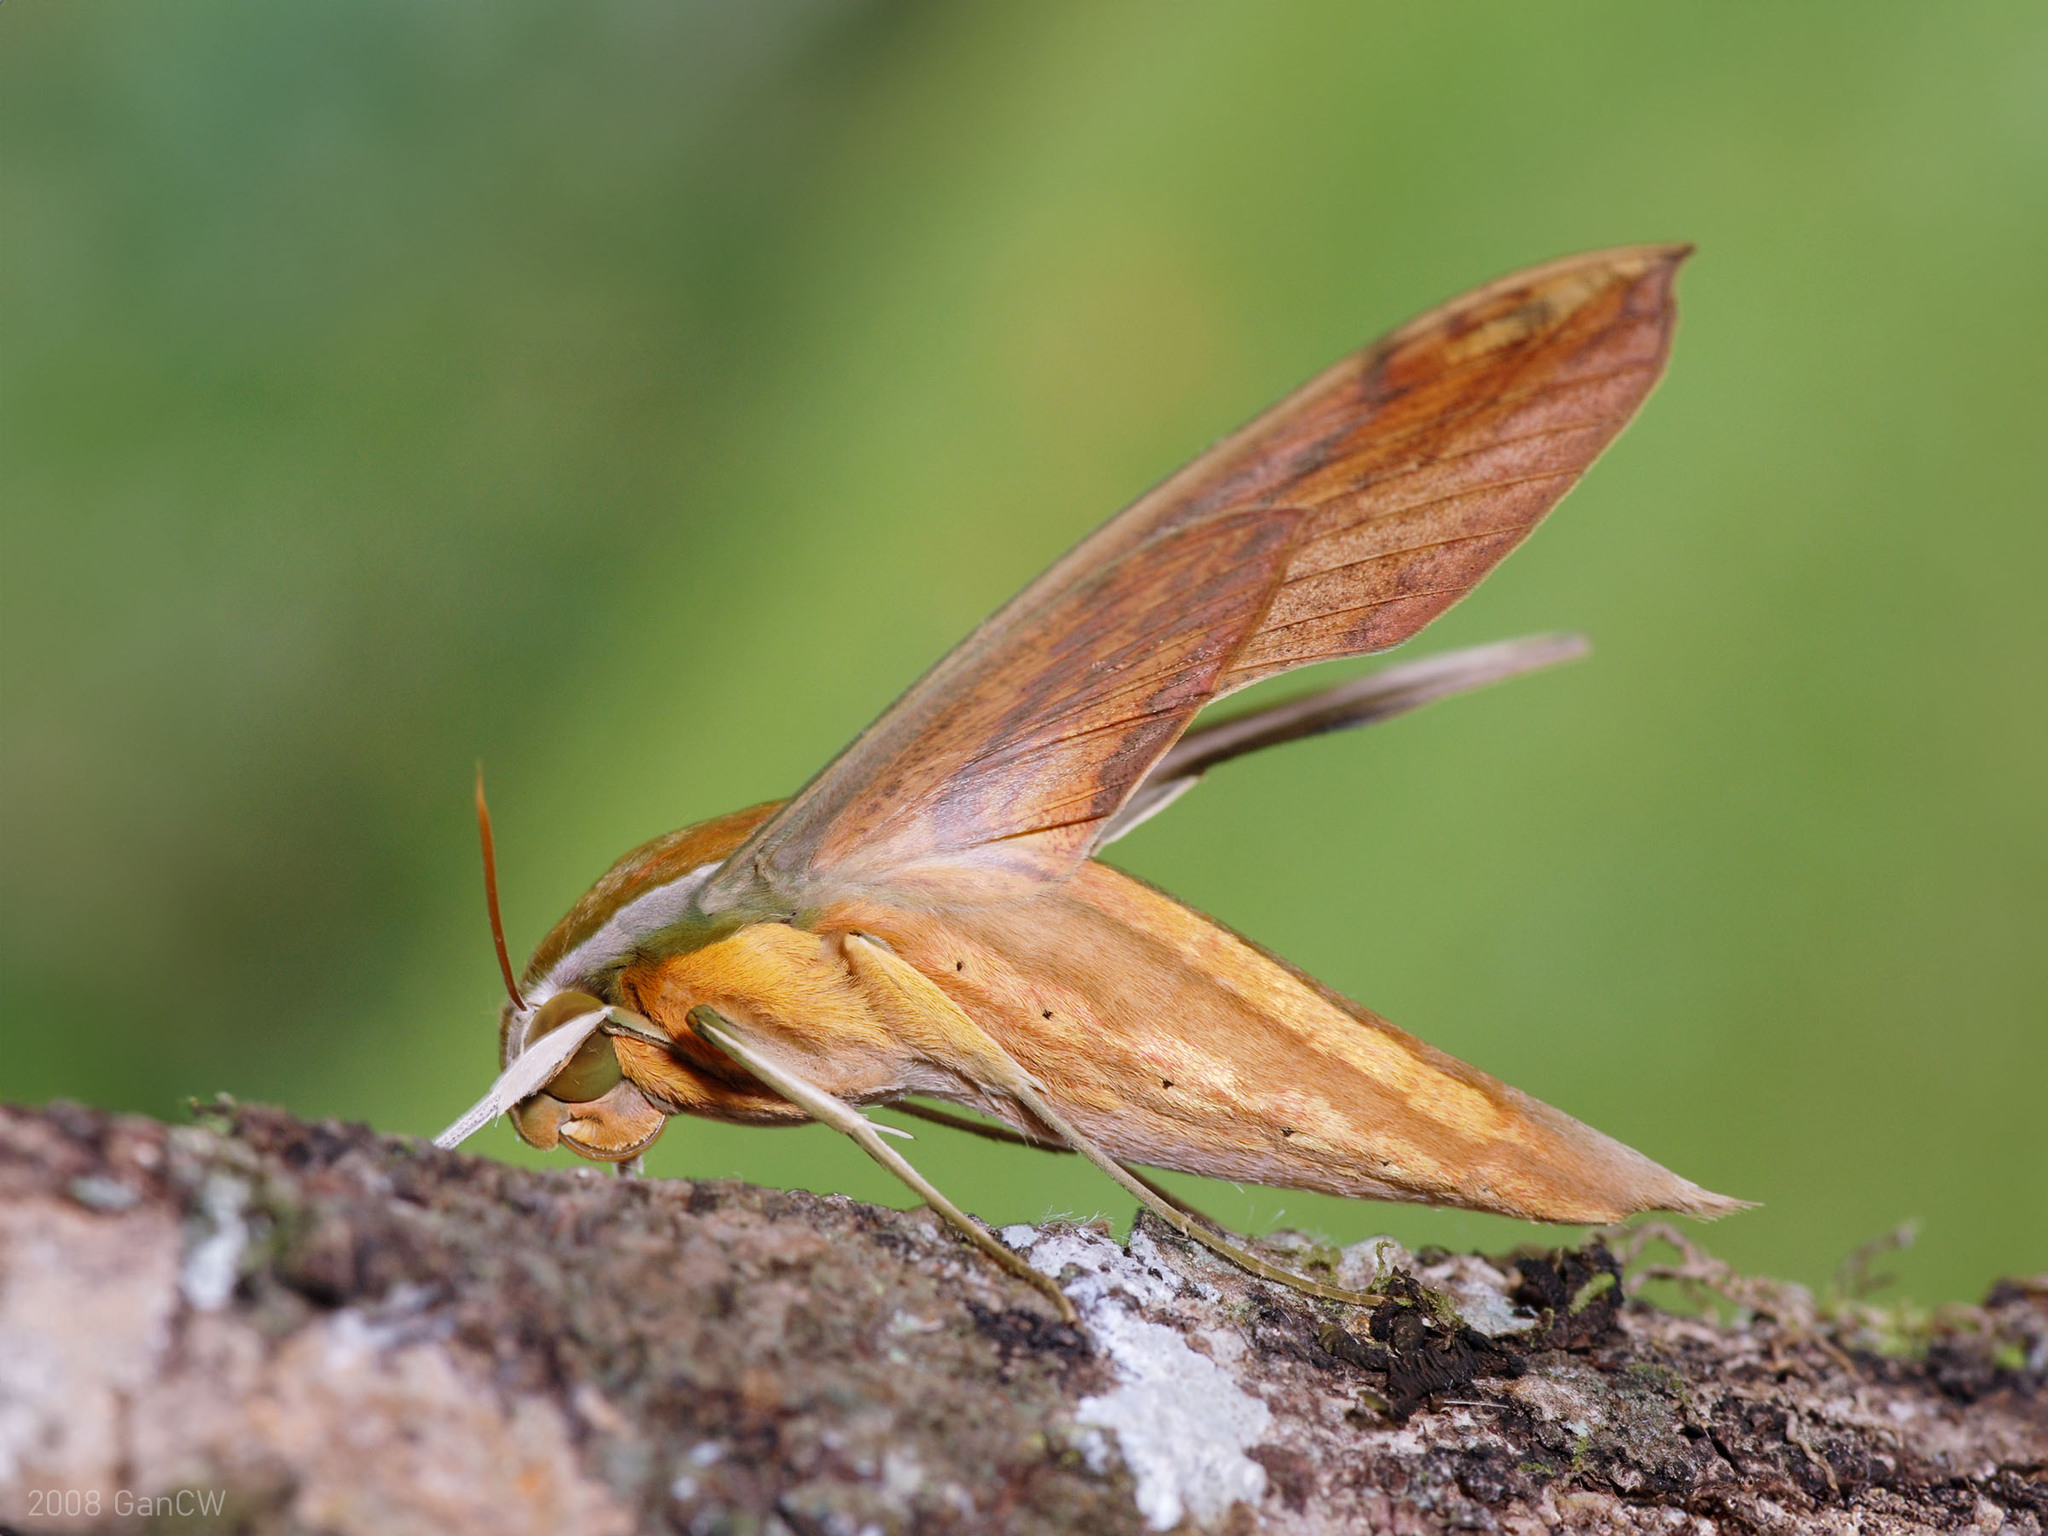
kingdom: Animalia
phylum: Arthropoda
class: Insecta
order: Lepidoptera
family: Sphingidae
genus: Theretra
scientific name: Theretra nessus
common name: Yam hawk moth
